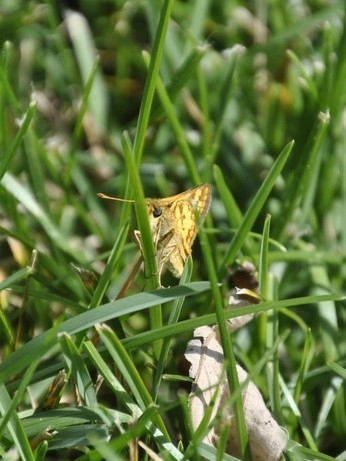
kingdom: Animalia
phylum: Arthropoda
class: Insecta
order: Lepidoptera
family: Hesperiidae
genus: Polites
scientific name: Polites coras
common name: Peck's skipper
